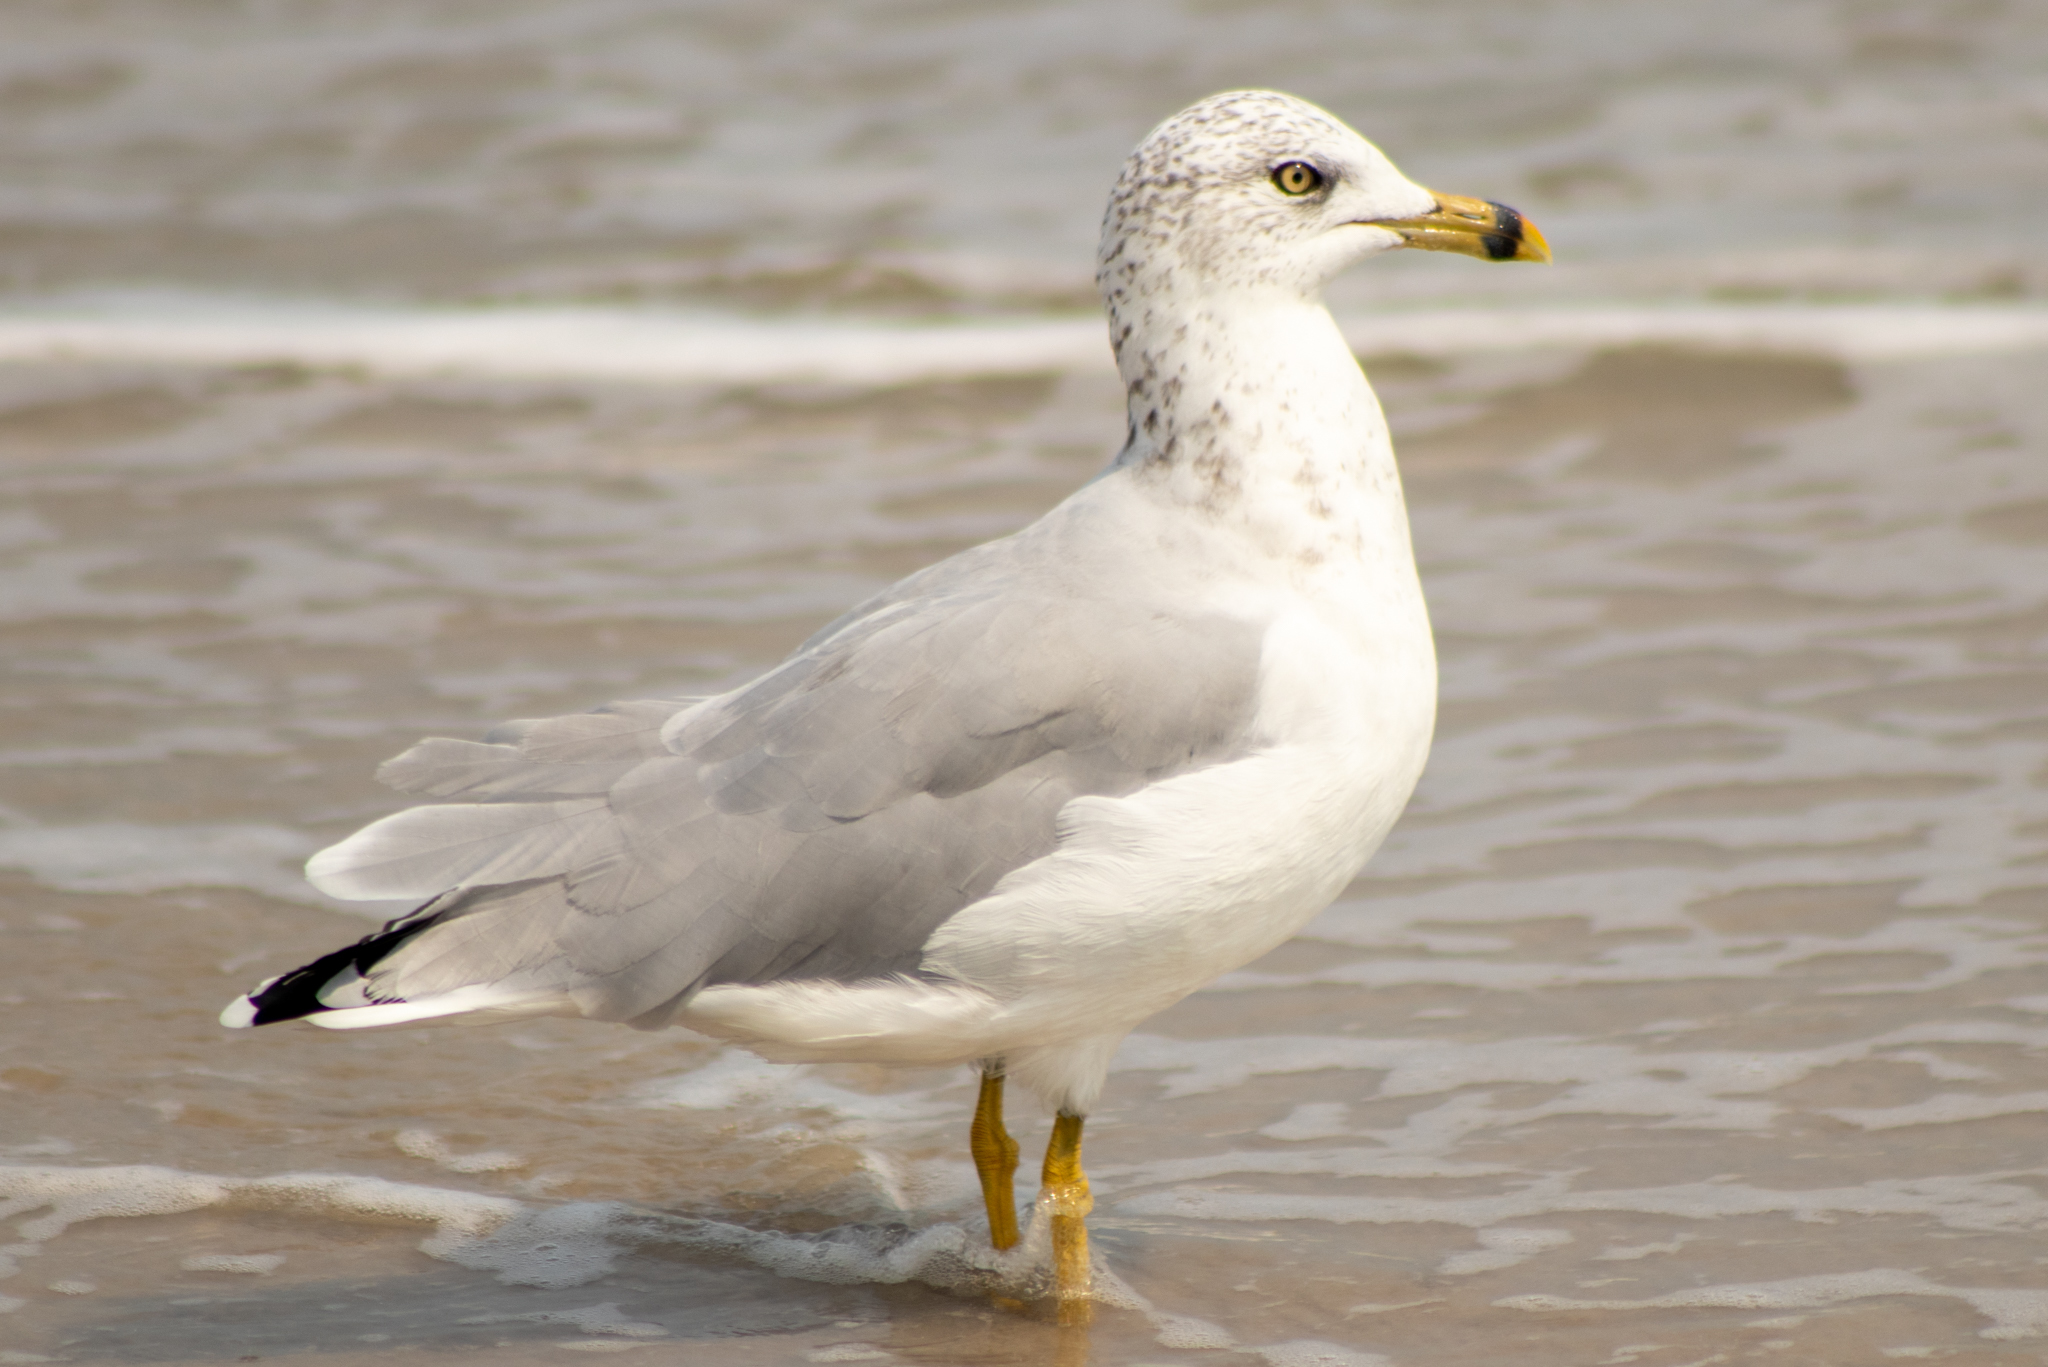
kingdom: Animalia
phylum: Chordata
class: Aves
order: Charadriiformes
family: Laridae
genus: Larus
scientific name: Larus delawarensis
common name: Ring-billed gull
